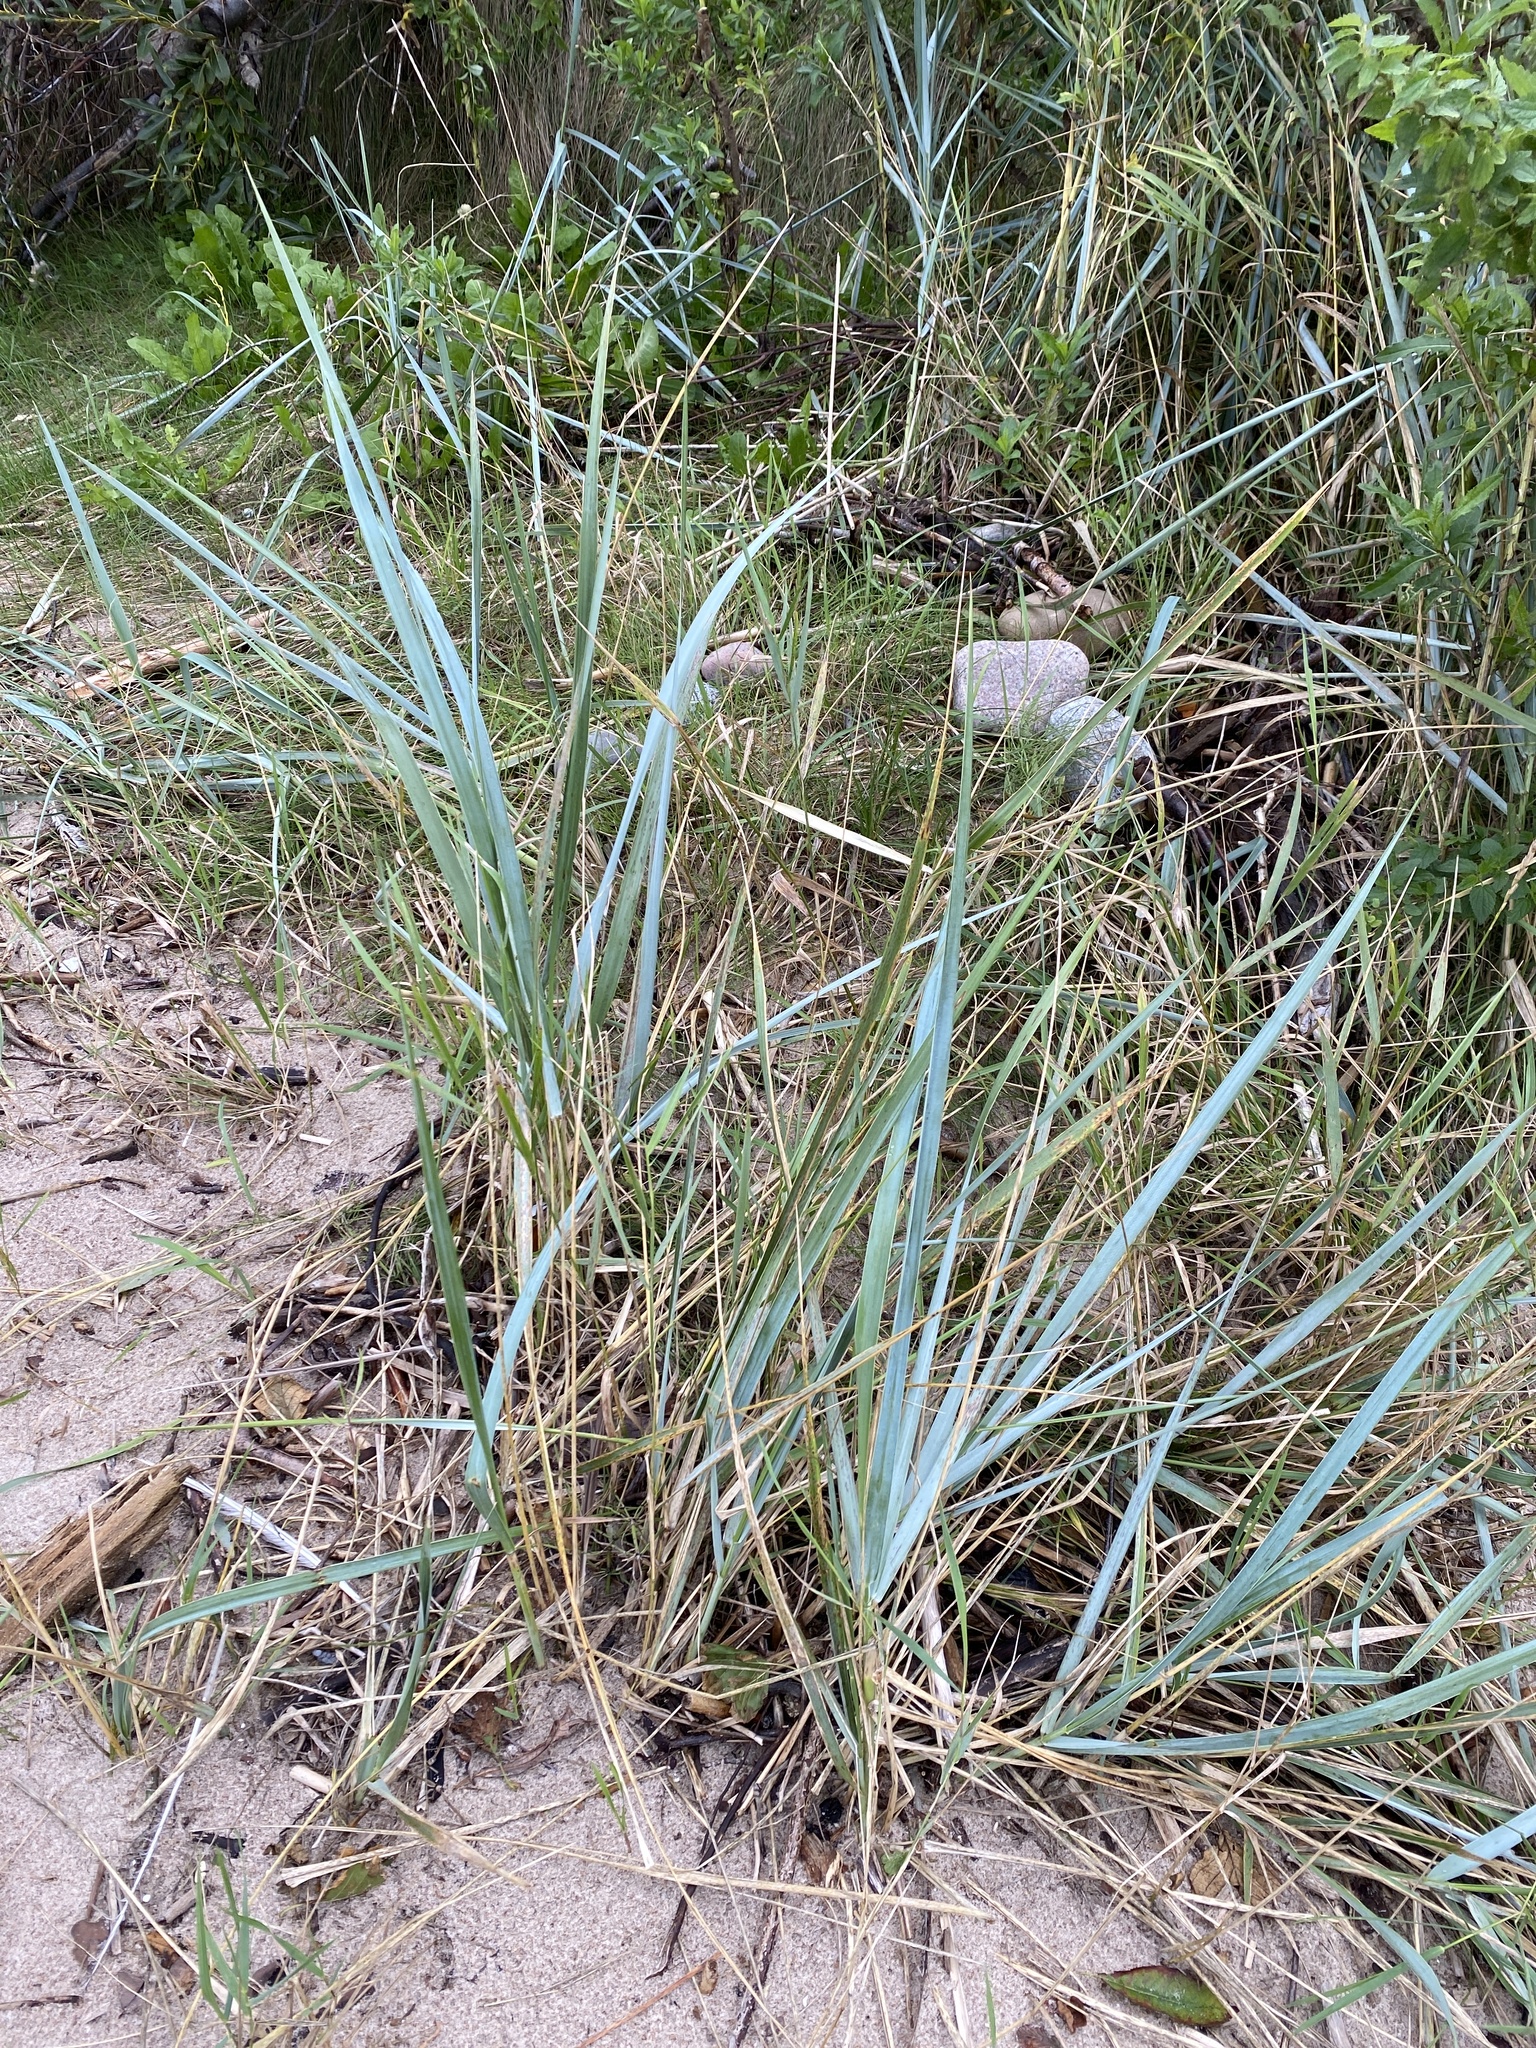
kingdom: Plantae
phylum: Tracheophyta
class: Liliopsida
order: Poales
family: Poaceae
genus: Leymus
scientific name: Leymus arenarius
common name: Lyme-grass
